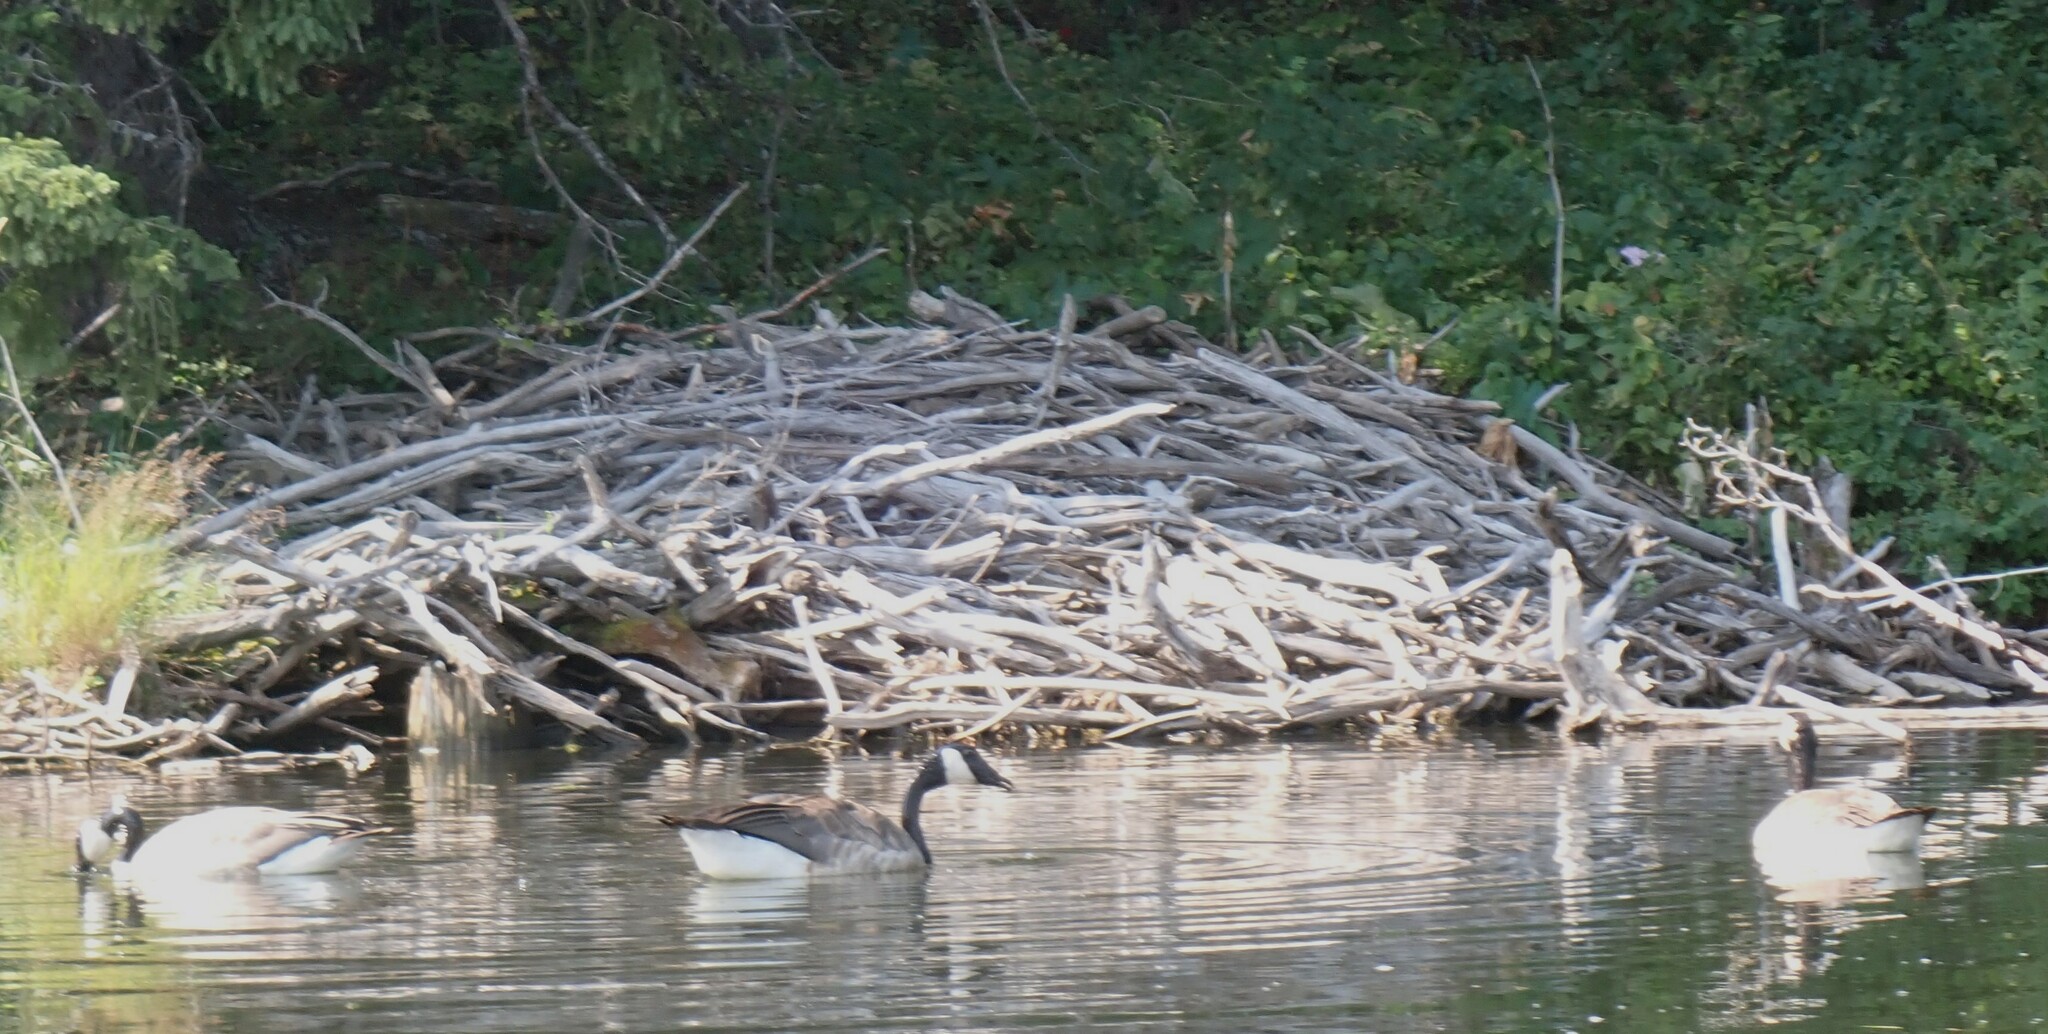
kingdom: Animalia
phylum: Chordata
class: Aves
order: Anseriformes
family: Anatidae
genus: Branta
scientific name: Branta canadensis
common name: Canada goose
